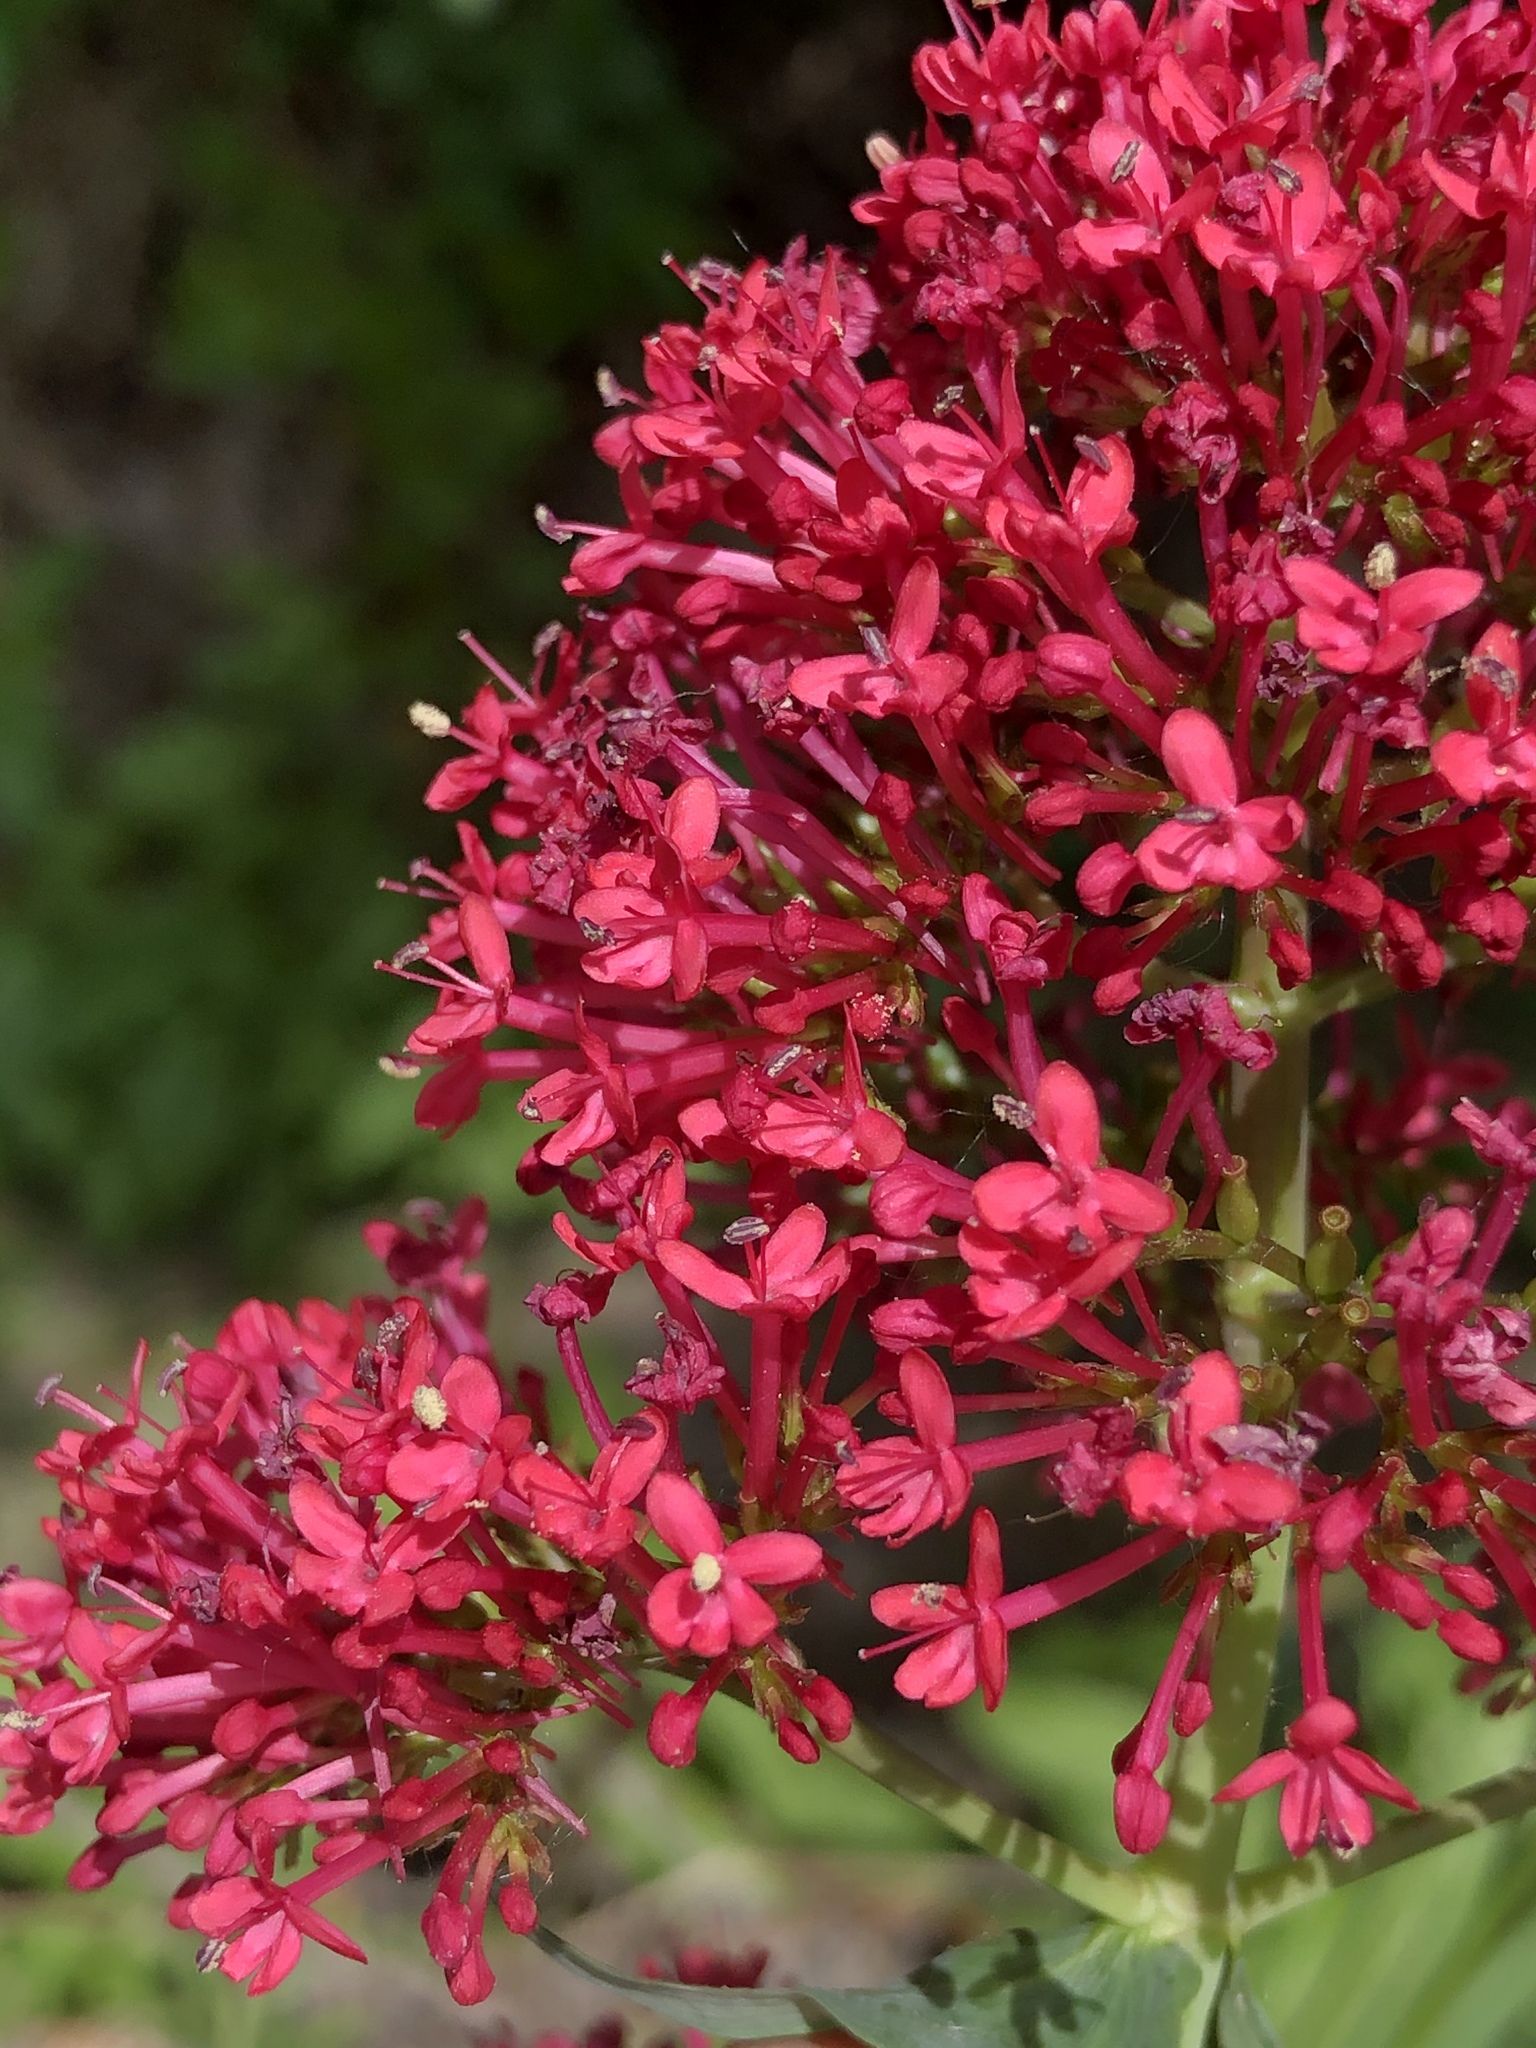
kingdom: Plantae
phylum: Tracheophyta
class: Magnoliopsida
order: Dipsacales
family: Caprifoliaceae
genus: Centranthus
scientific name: Centranthus ruber
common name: Red valerian
